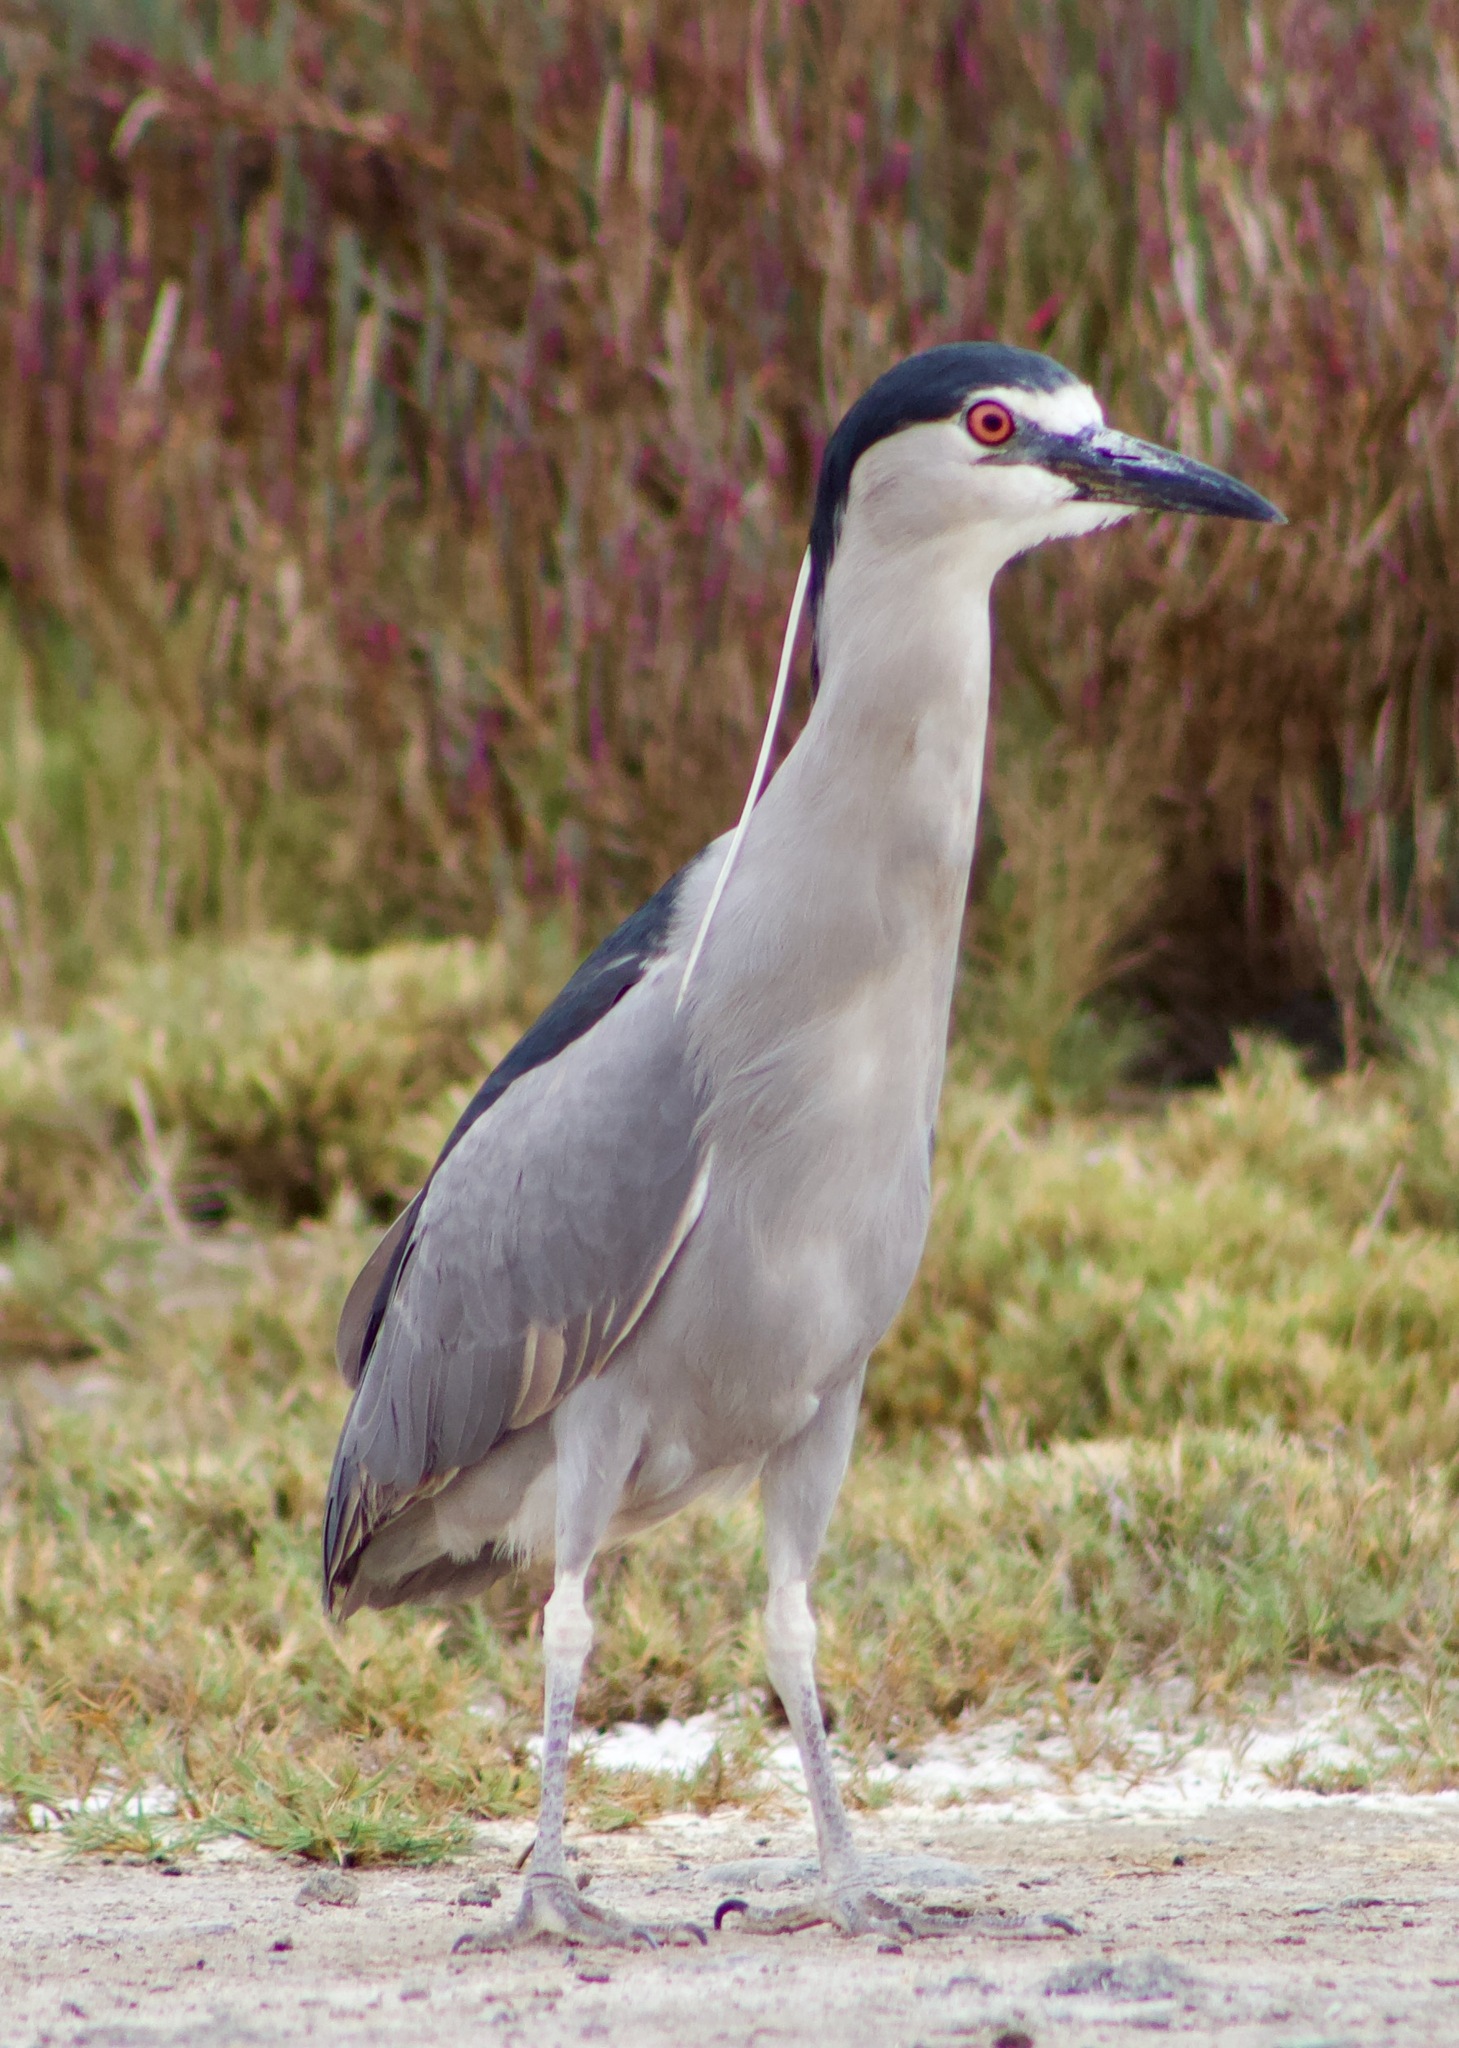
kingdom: Animalia
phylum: Chordata
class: Aves
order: Pelecaniformes
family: Ardeidae
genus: Nycticorax
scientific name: Nycticorax nycticorax
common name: Black-crowned night heron
